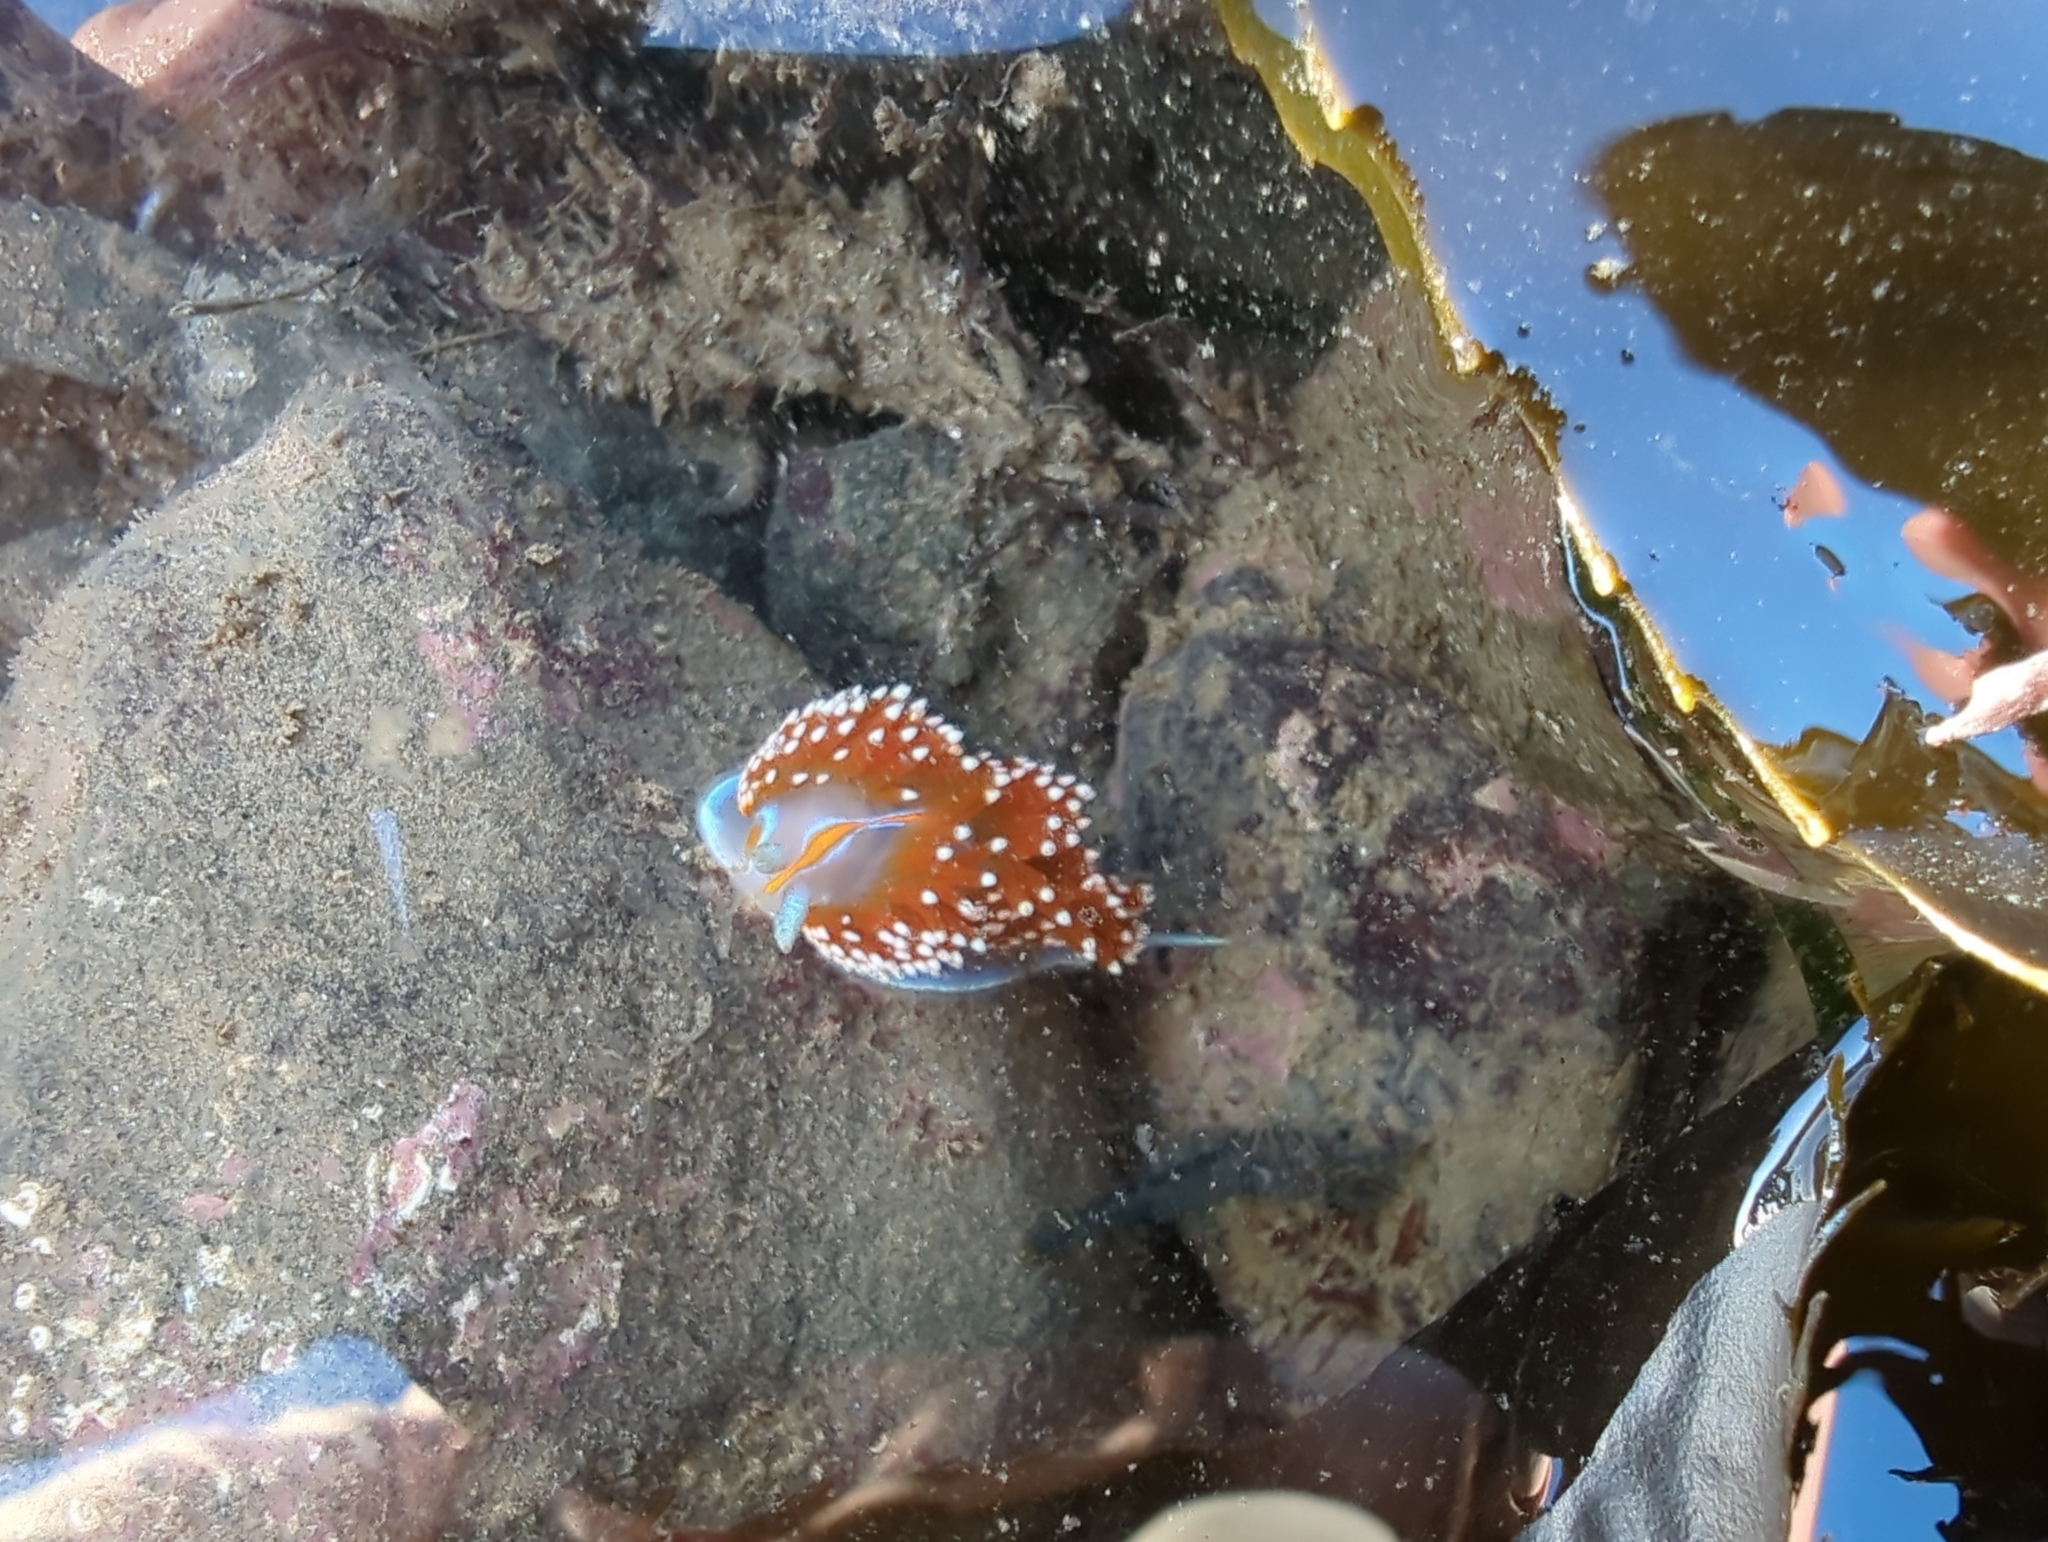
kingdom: Animalia
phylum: Mollusca
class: Gastropoda
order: Nudibranchia
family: Myrrhinidae
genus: Hermissenda
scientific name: Hermissenda opalescens
